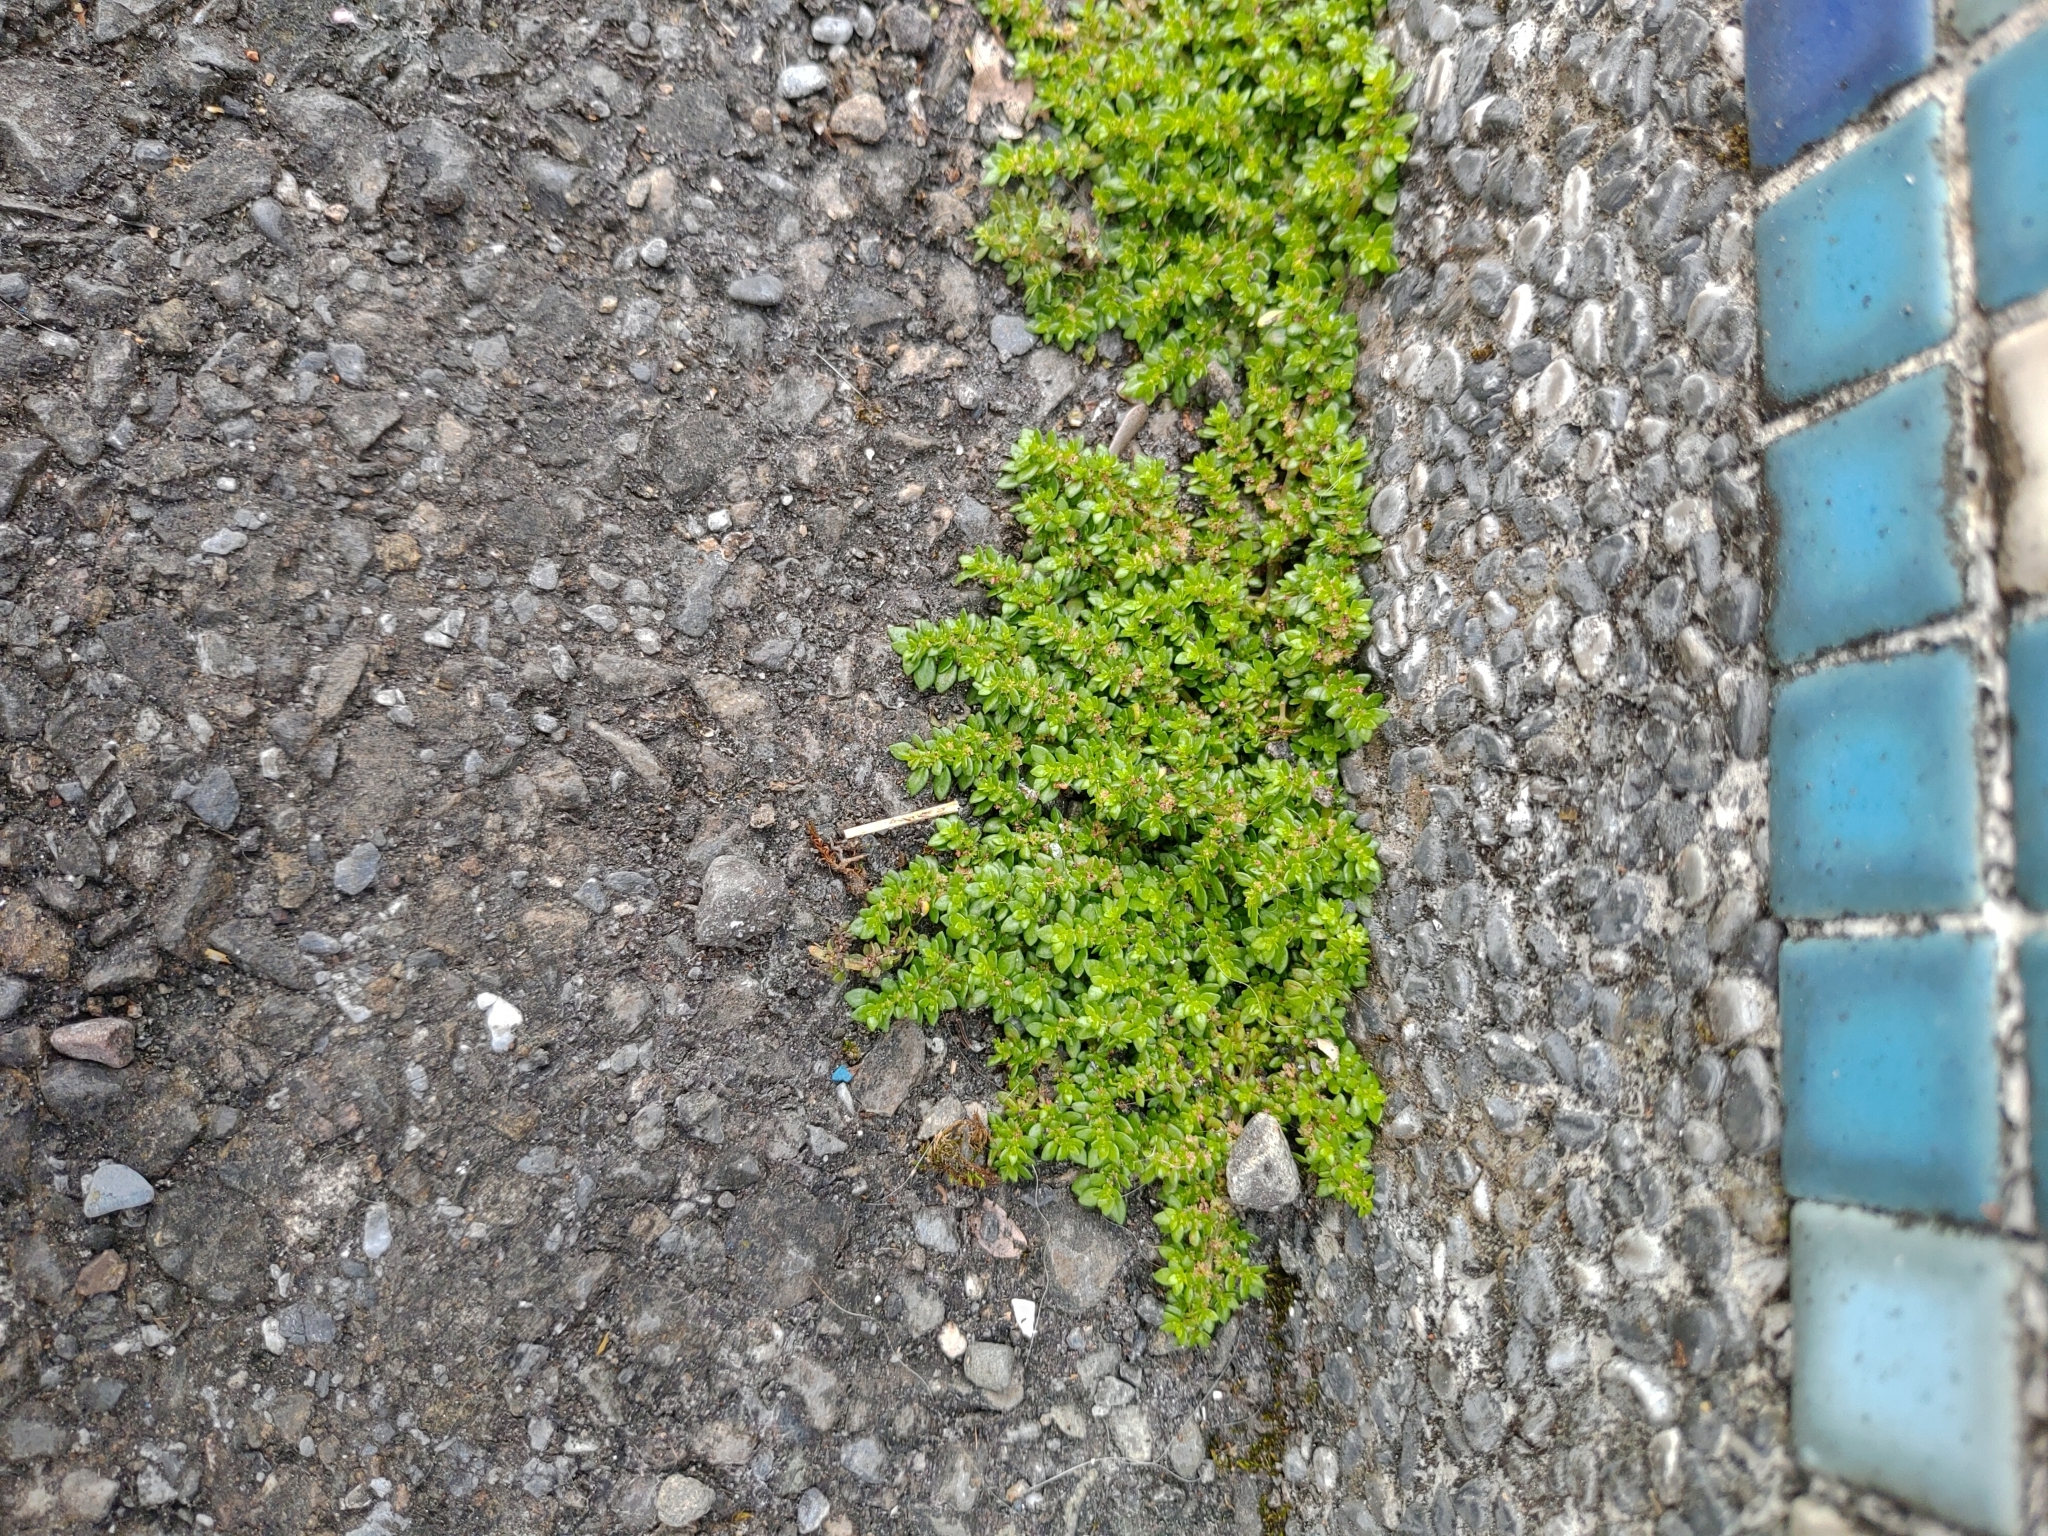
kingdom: Plantae
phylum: Tracheophyta
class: Magnoliopsida
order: Rosales
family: Urticaceae
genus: Pilea
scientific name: Pilea microphylla
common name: Artillery-plant
